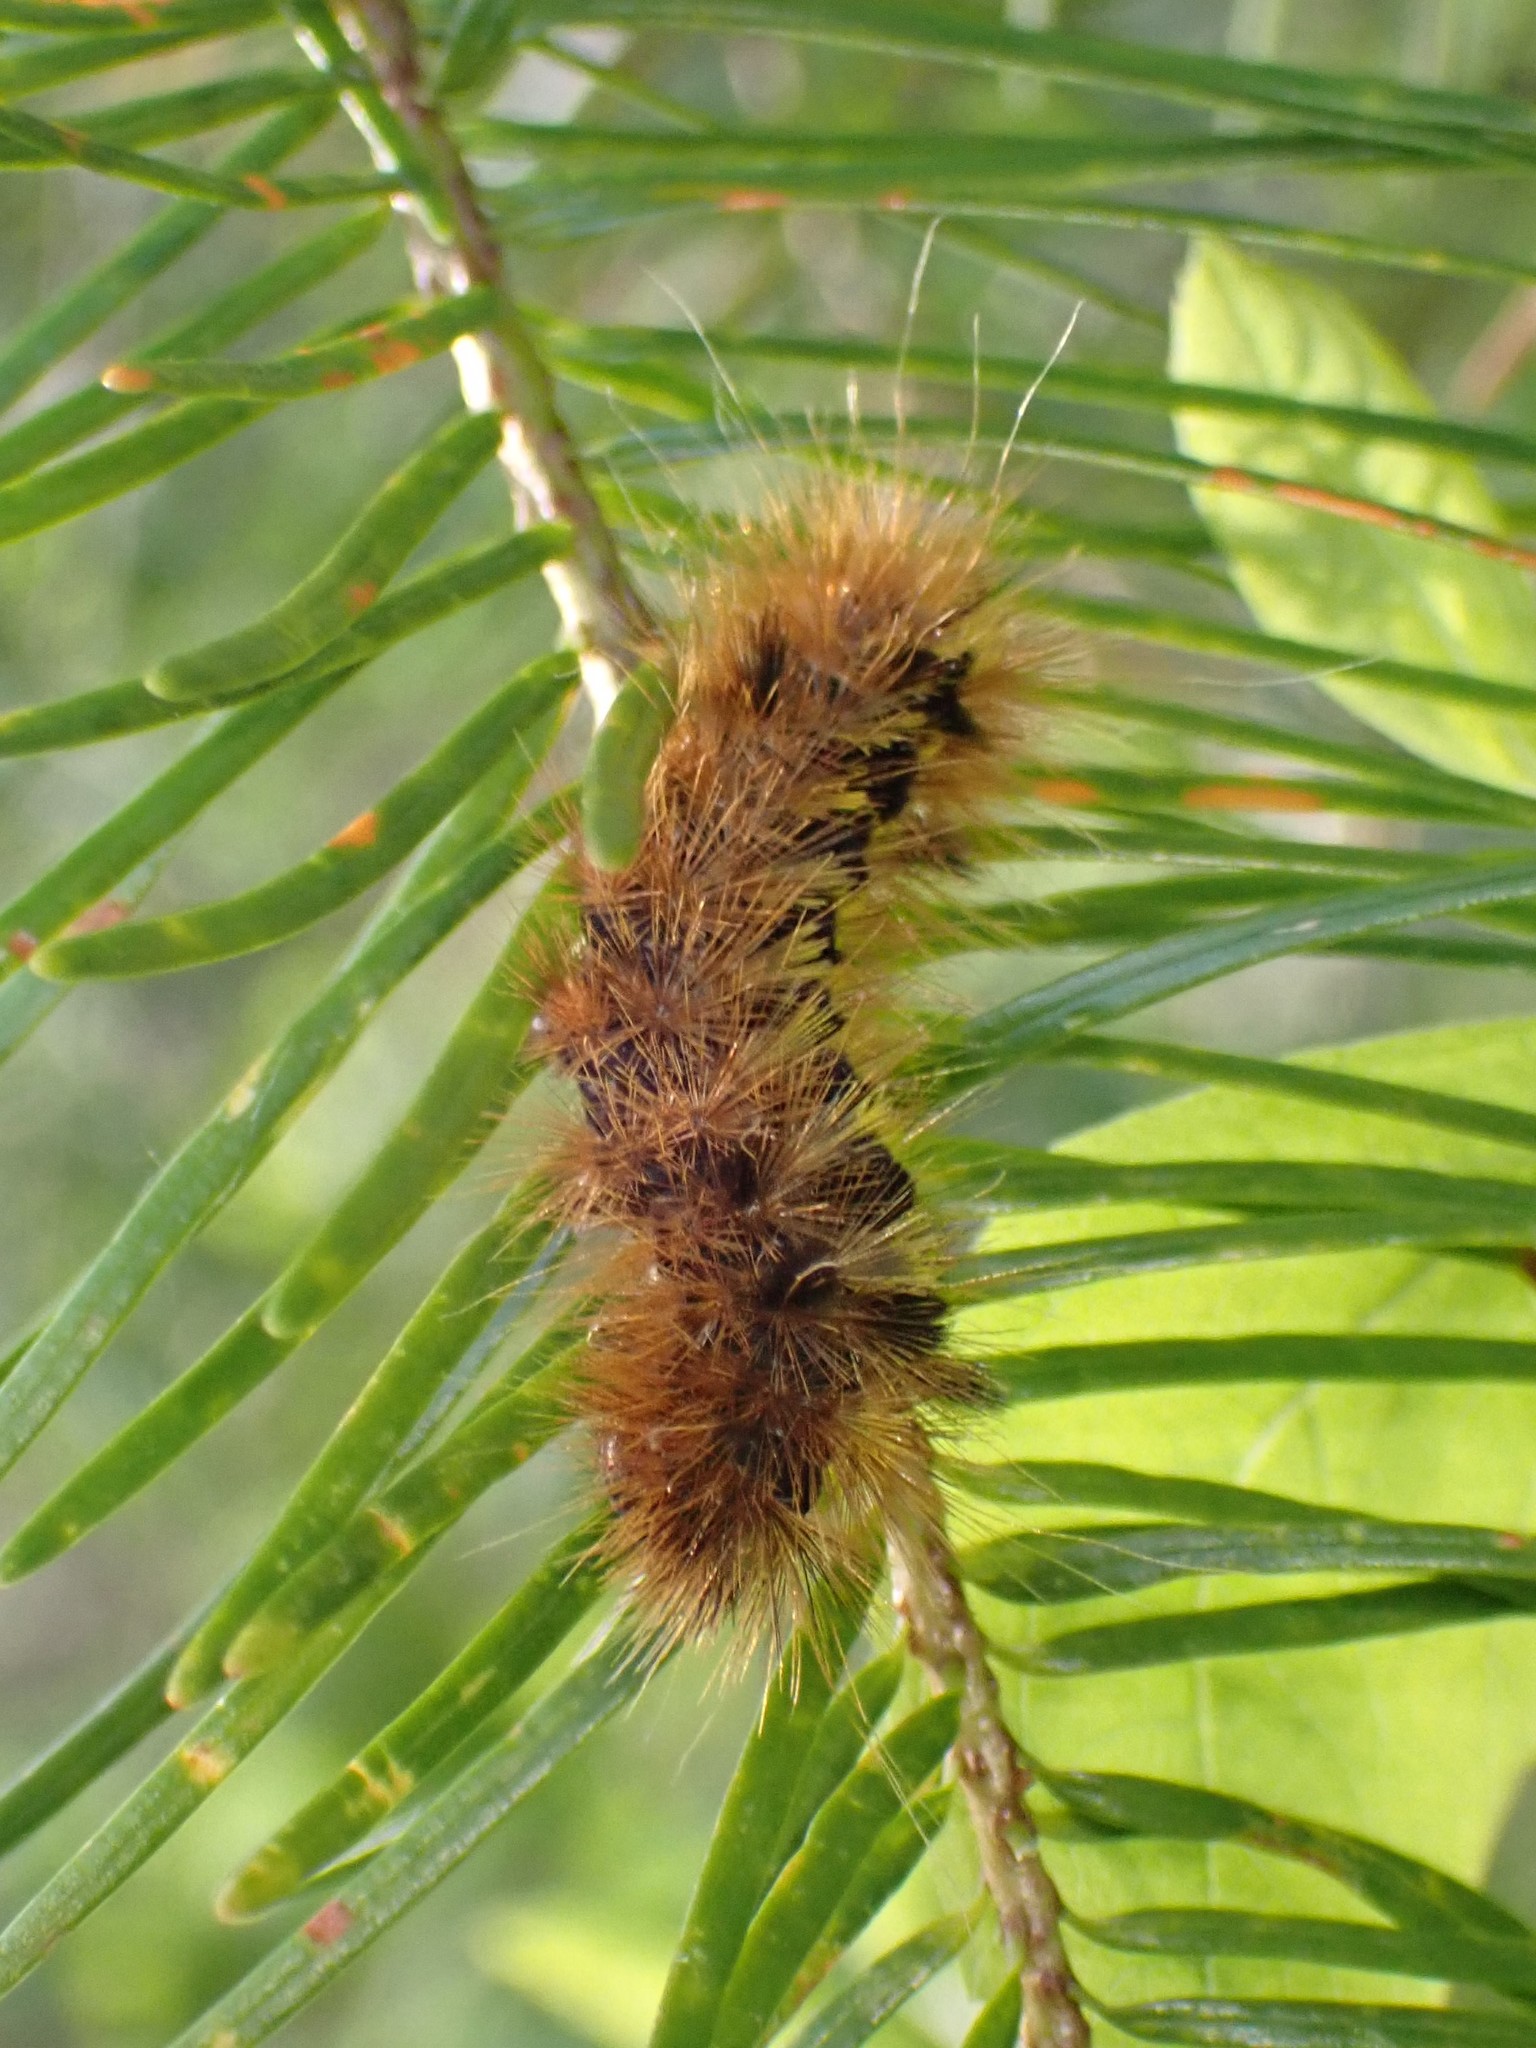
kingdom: Animalia
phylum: Arthropoda
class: Insecta
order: Lepidoptera
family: Erebidae
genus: Lophocampa
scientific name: Lophocampa argentata
